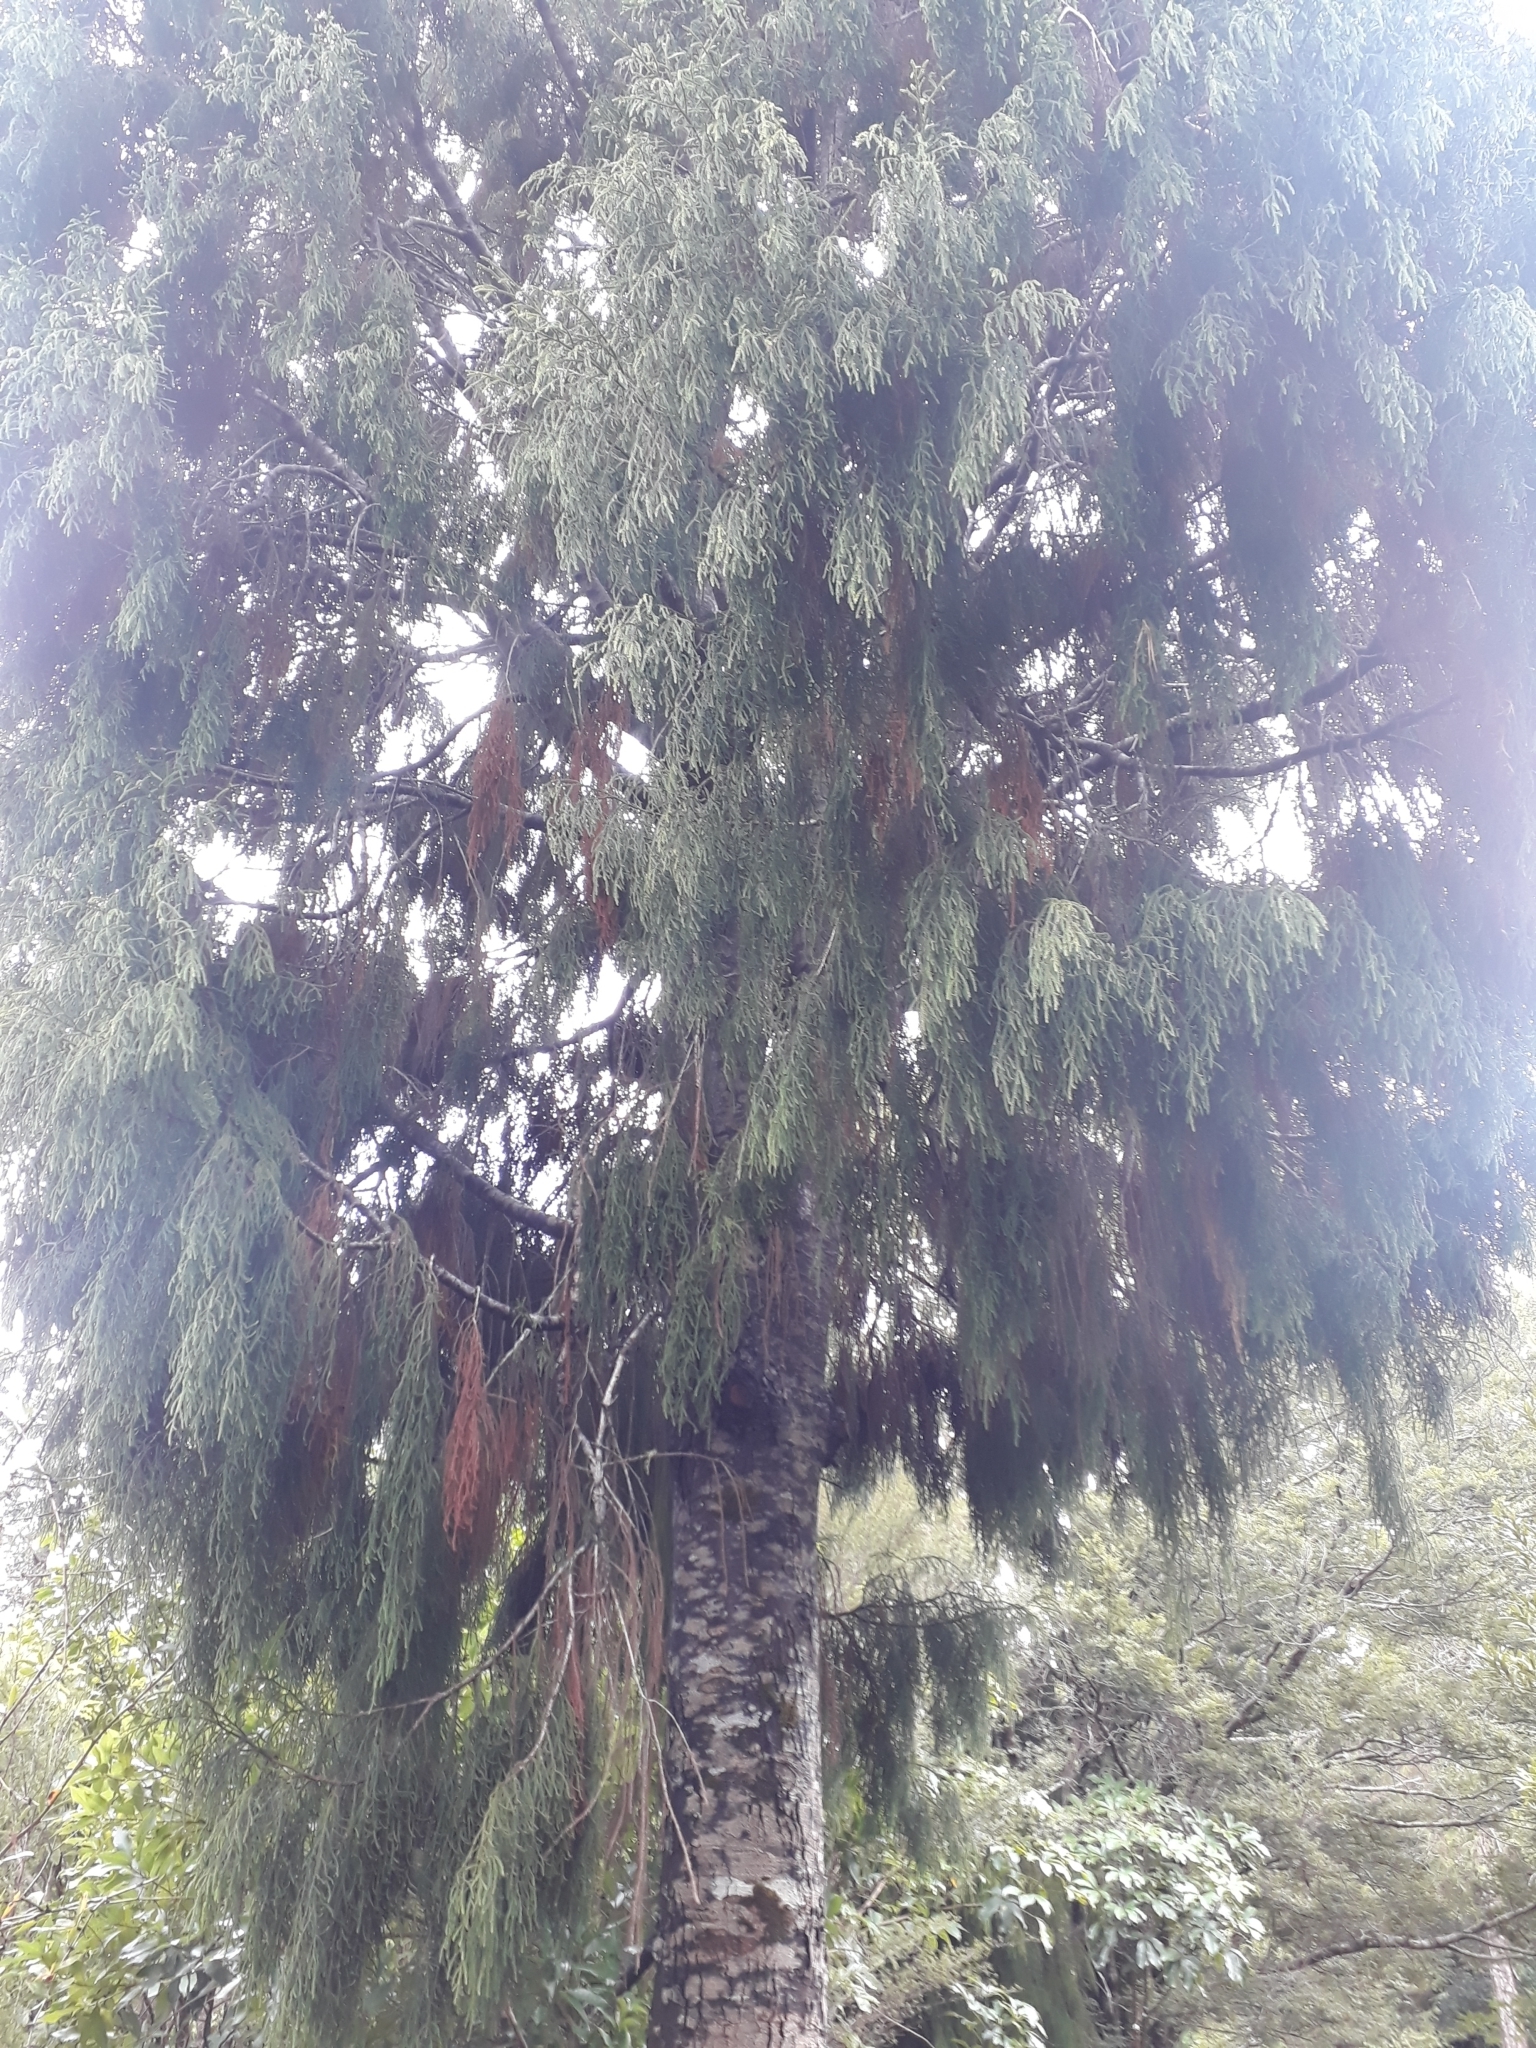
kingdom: Plantae
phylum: Tracheophyta
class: Pinopsida
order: Pinales
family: Podocarpaceae
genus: Dacrydium
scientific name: Dacrydium cupressinum
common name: Red pine
